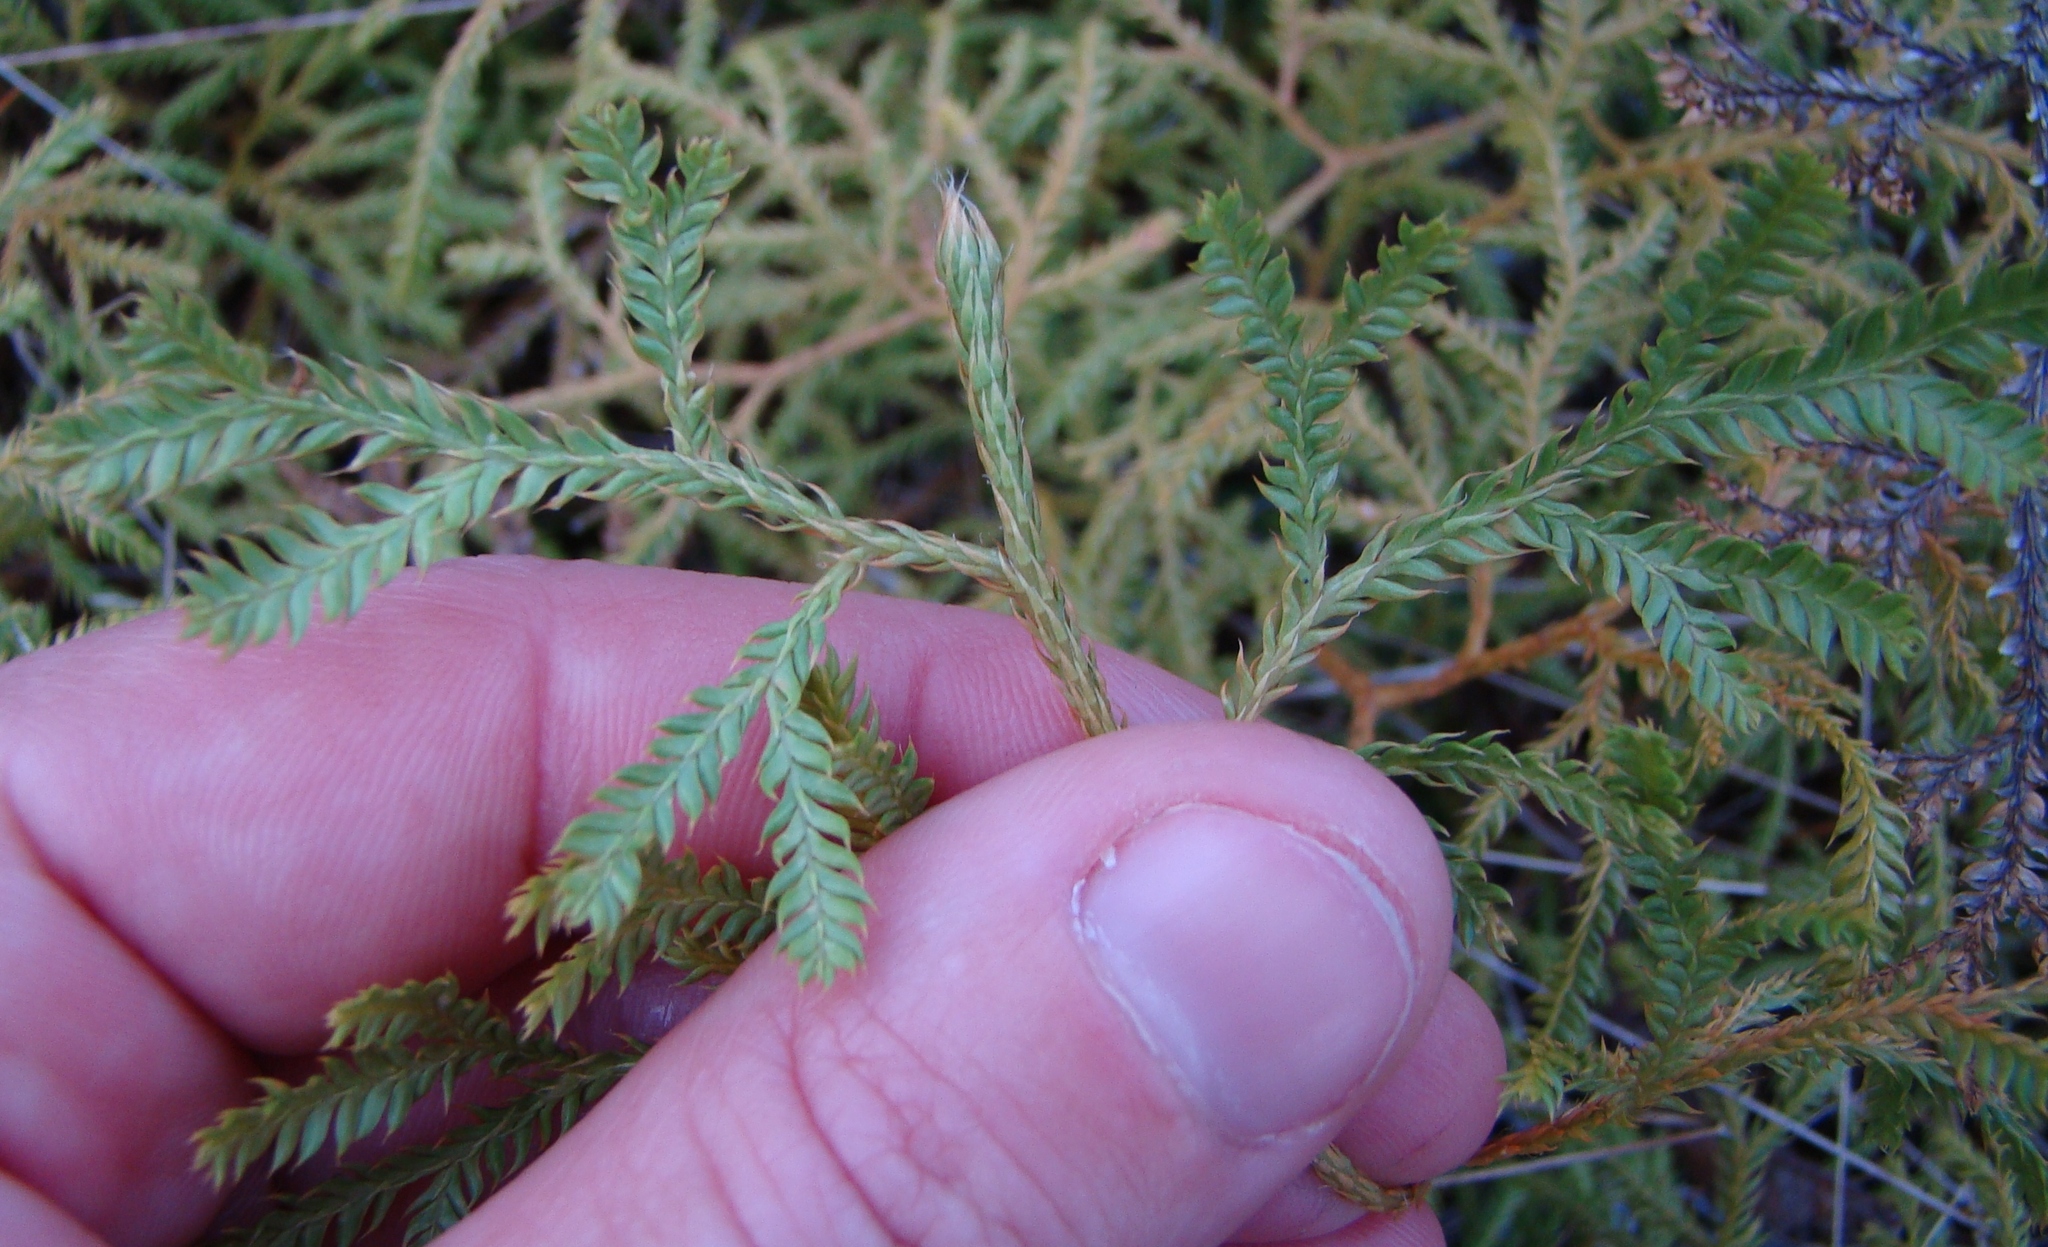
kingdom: Plantae
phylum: Tracheophyta
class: Lycopodiopsida
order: Lycopodiales
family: Lycopodiaceae
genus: Lycopodium
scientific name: Lycopodium volubile
